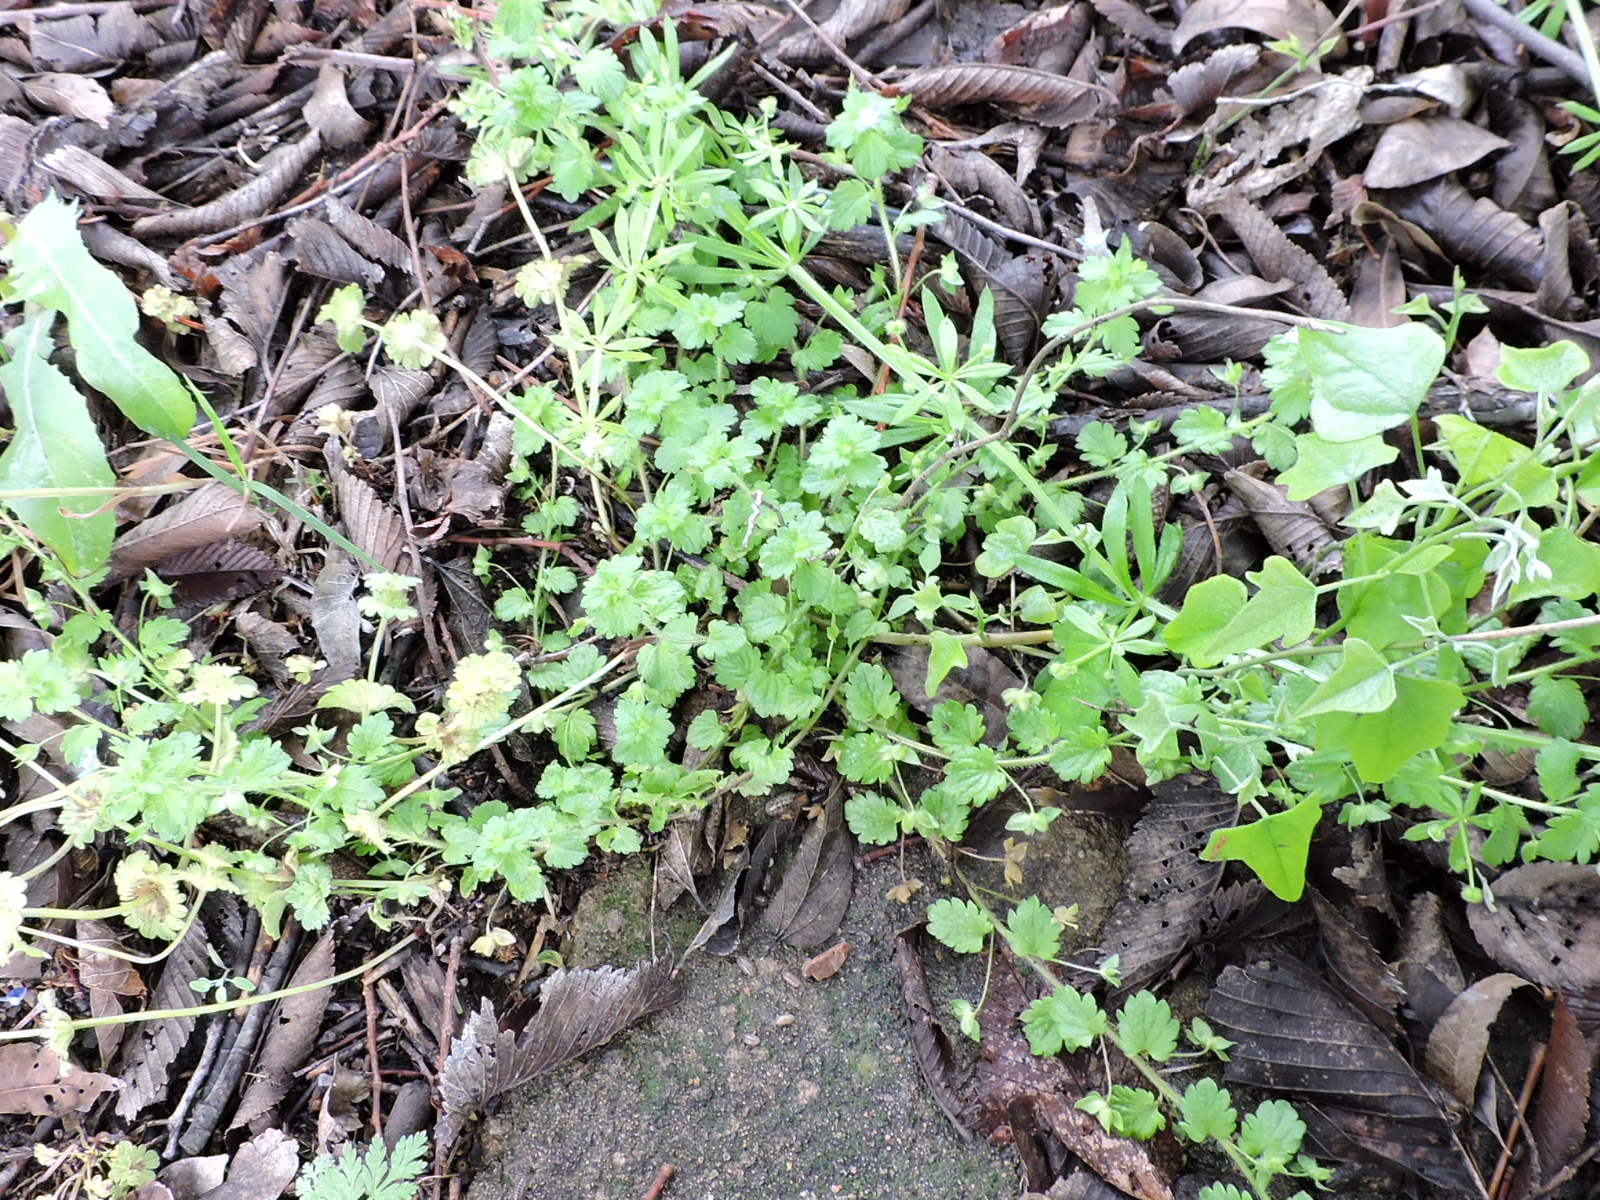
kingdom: Plantae
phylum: Tracheophyta
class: Magnoliopsida
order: Lamiales
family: Plantaginaceae
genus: Veronica
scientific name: Veronica persica
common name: Common field-speedwell
